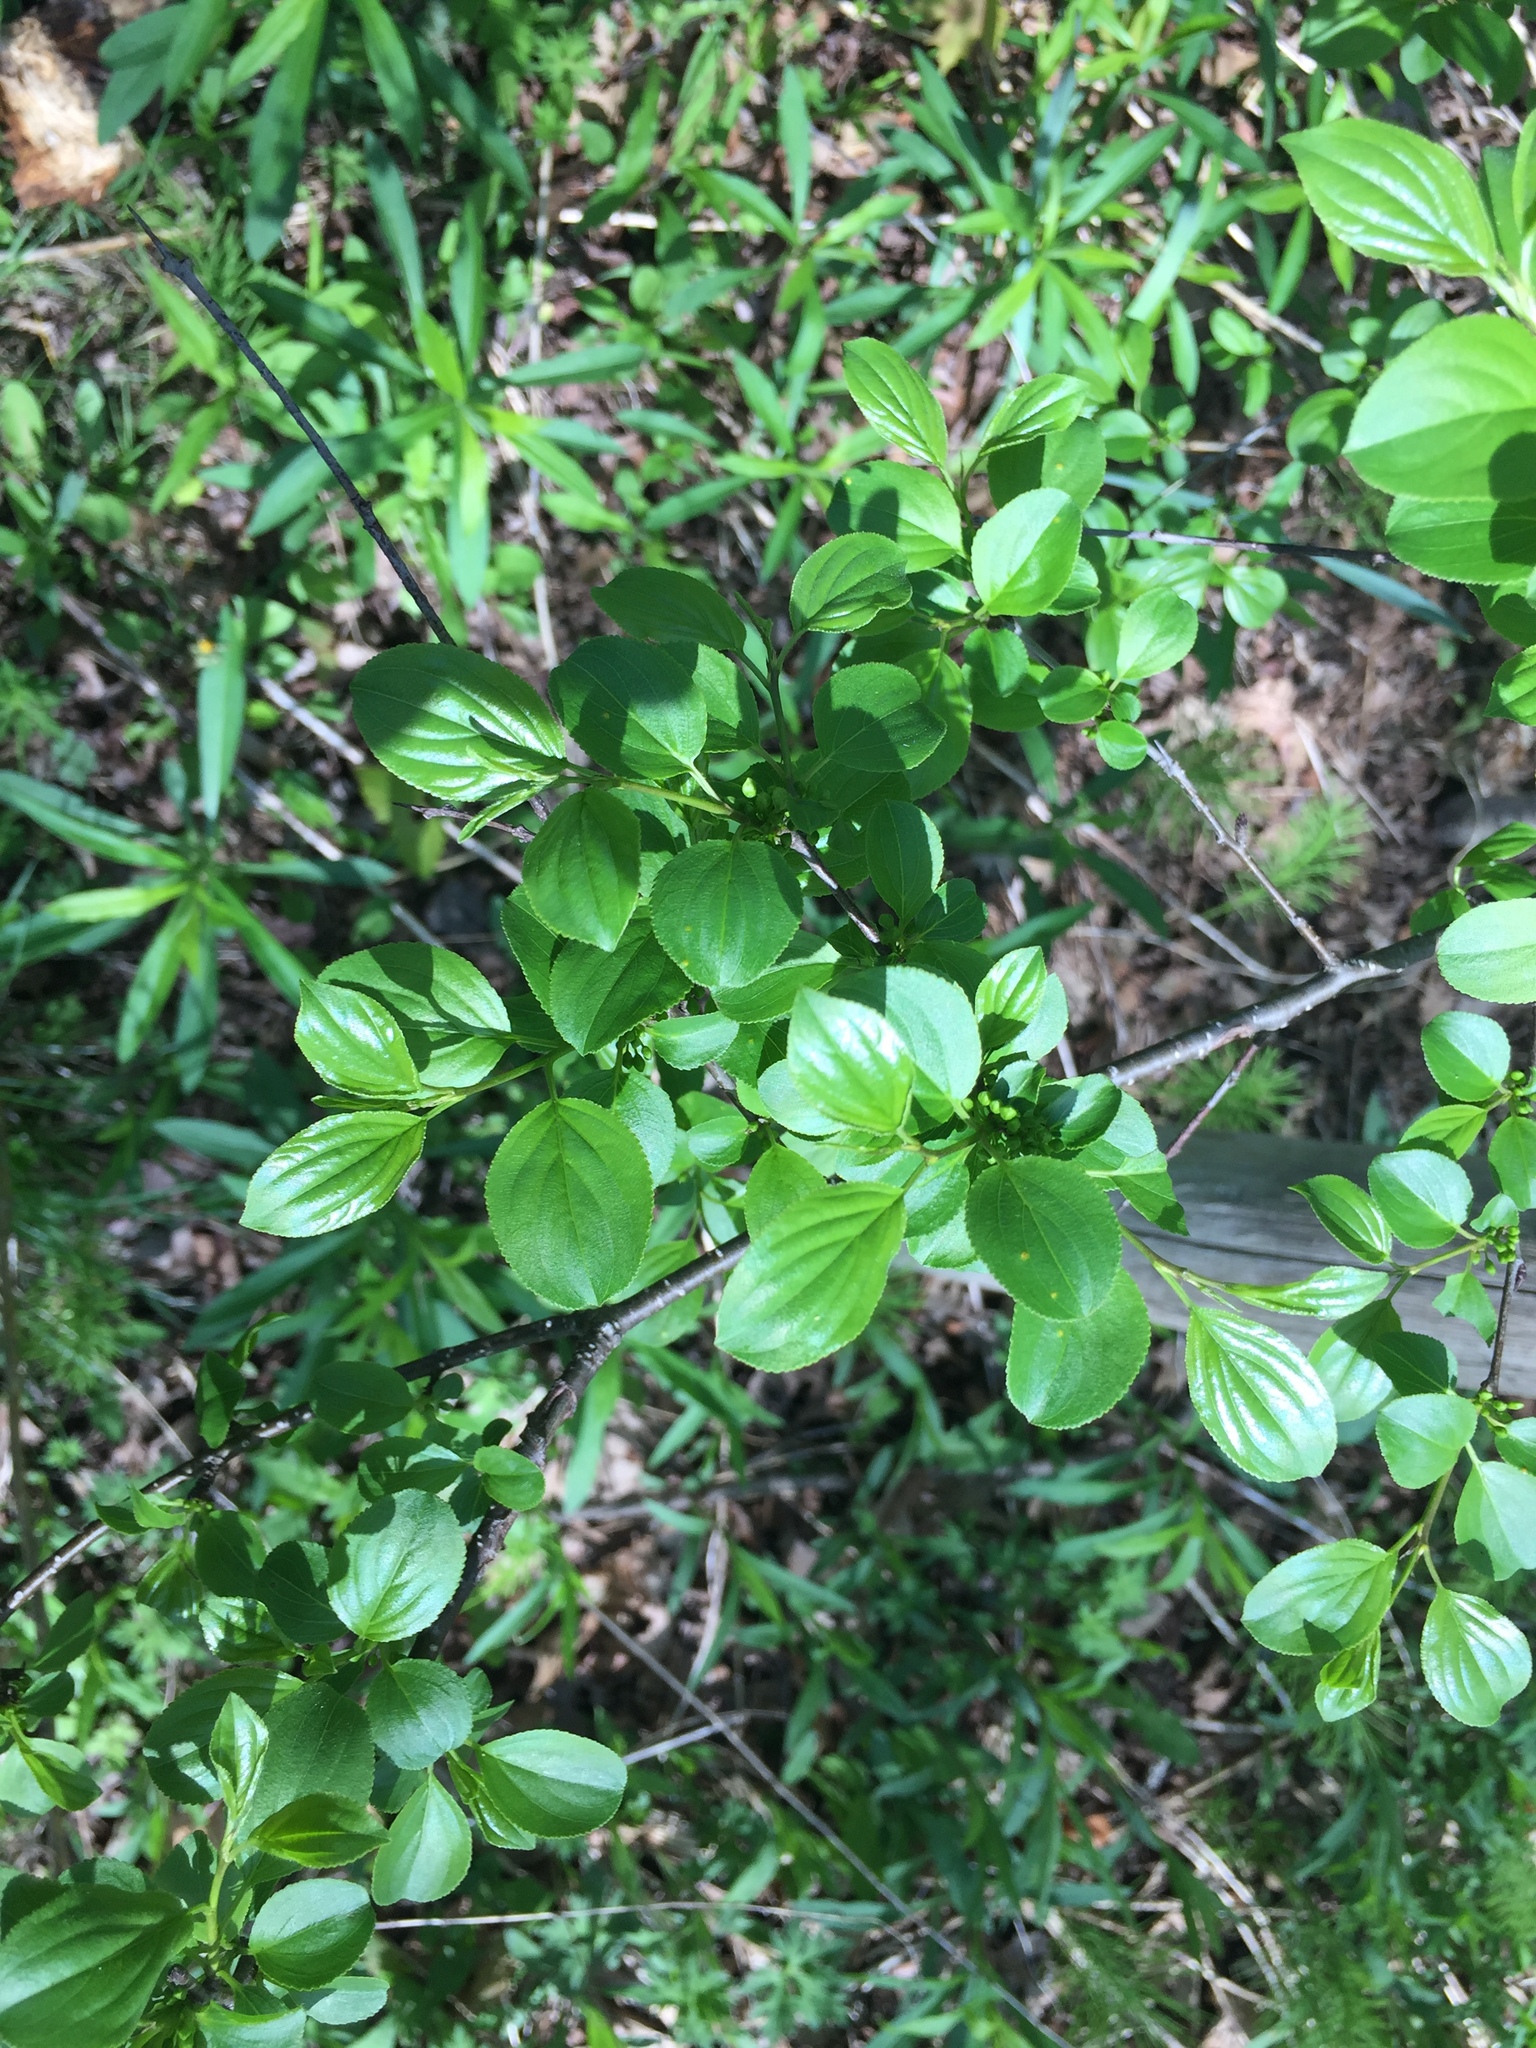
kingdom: Plantae
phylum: Tracheophyta
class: Magnoliopsida
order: Rosales
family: Rhamnaceae
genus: Rhamnus
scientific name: Rhamnus cathartica
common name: Common buckthorn
